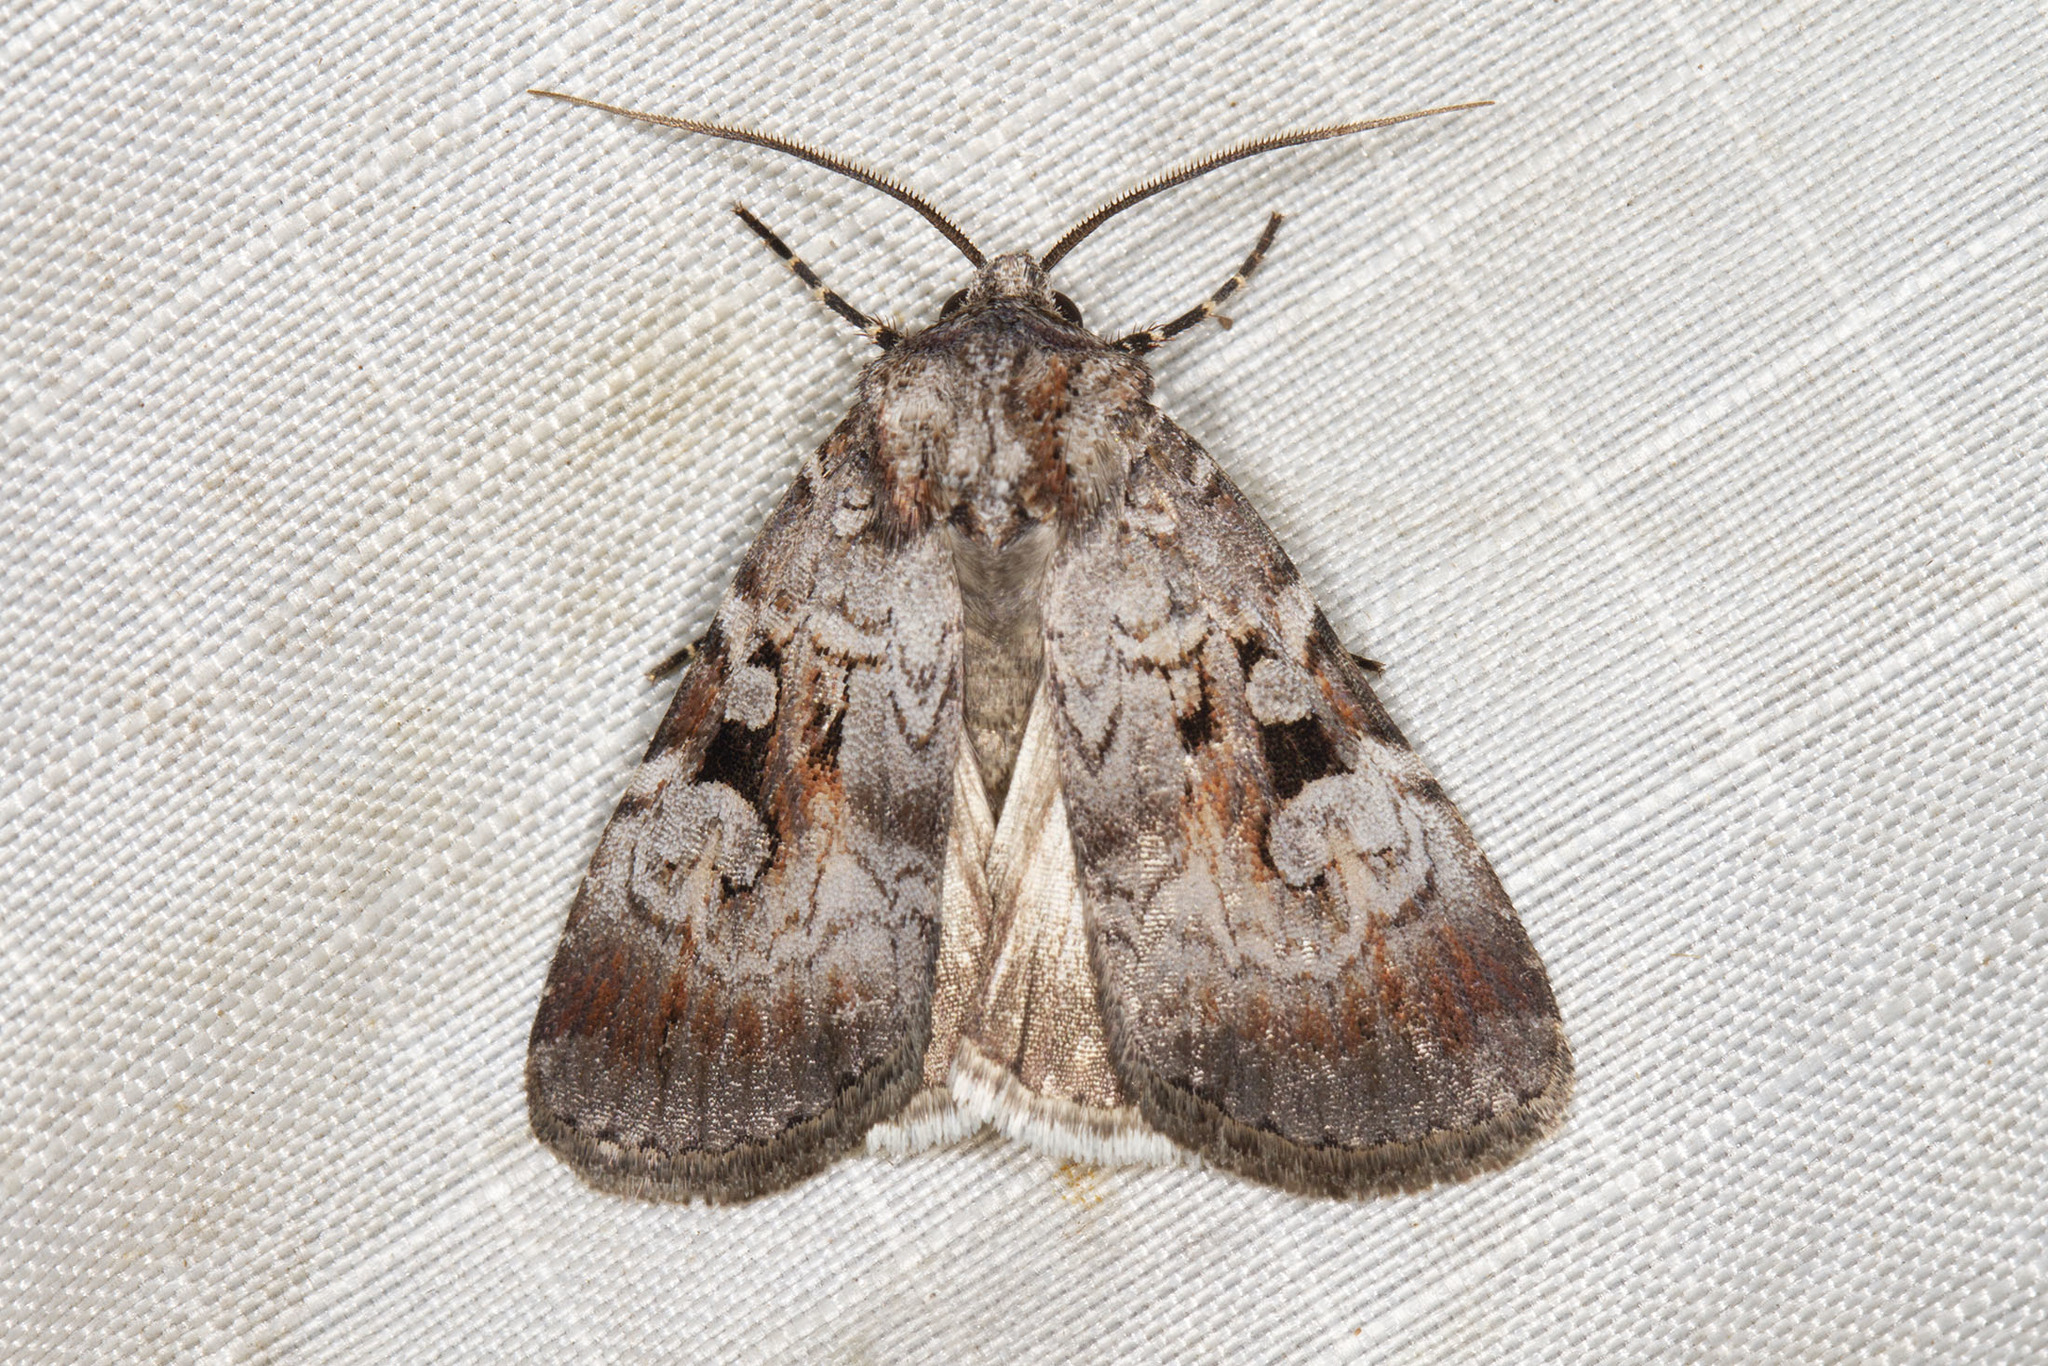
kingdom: Animalia
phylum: Arthropoda
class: Insecta
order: Lepidoptera
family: Noctuidae
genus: Feltia
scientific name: Feltia geniculata
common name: Knee-joint dart
